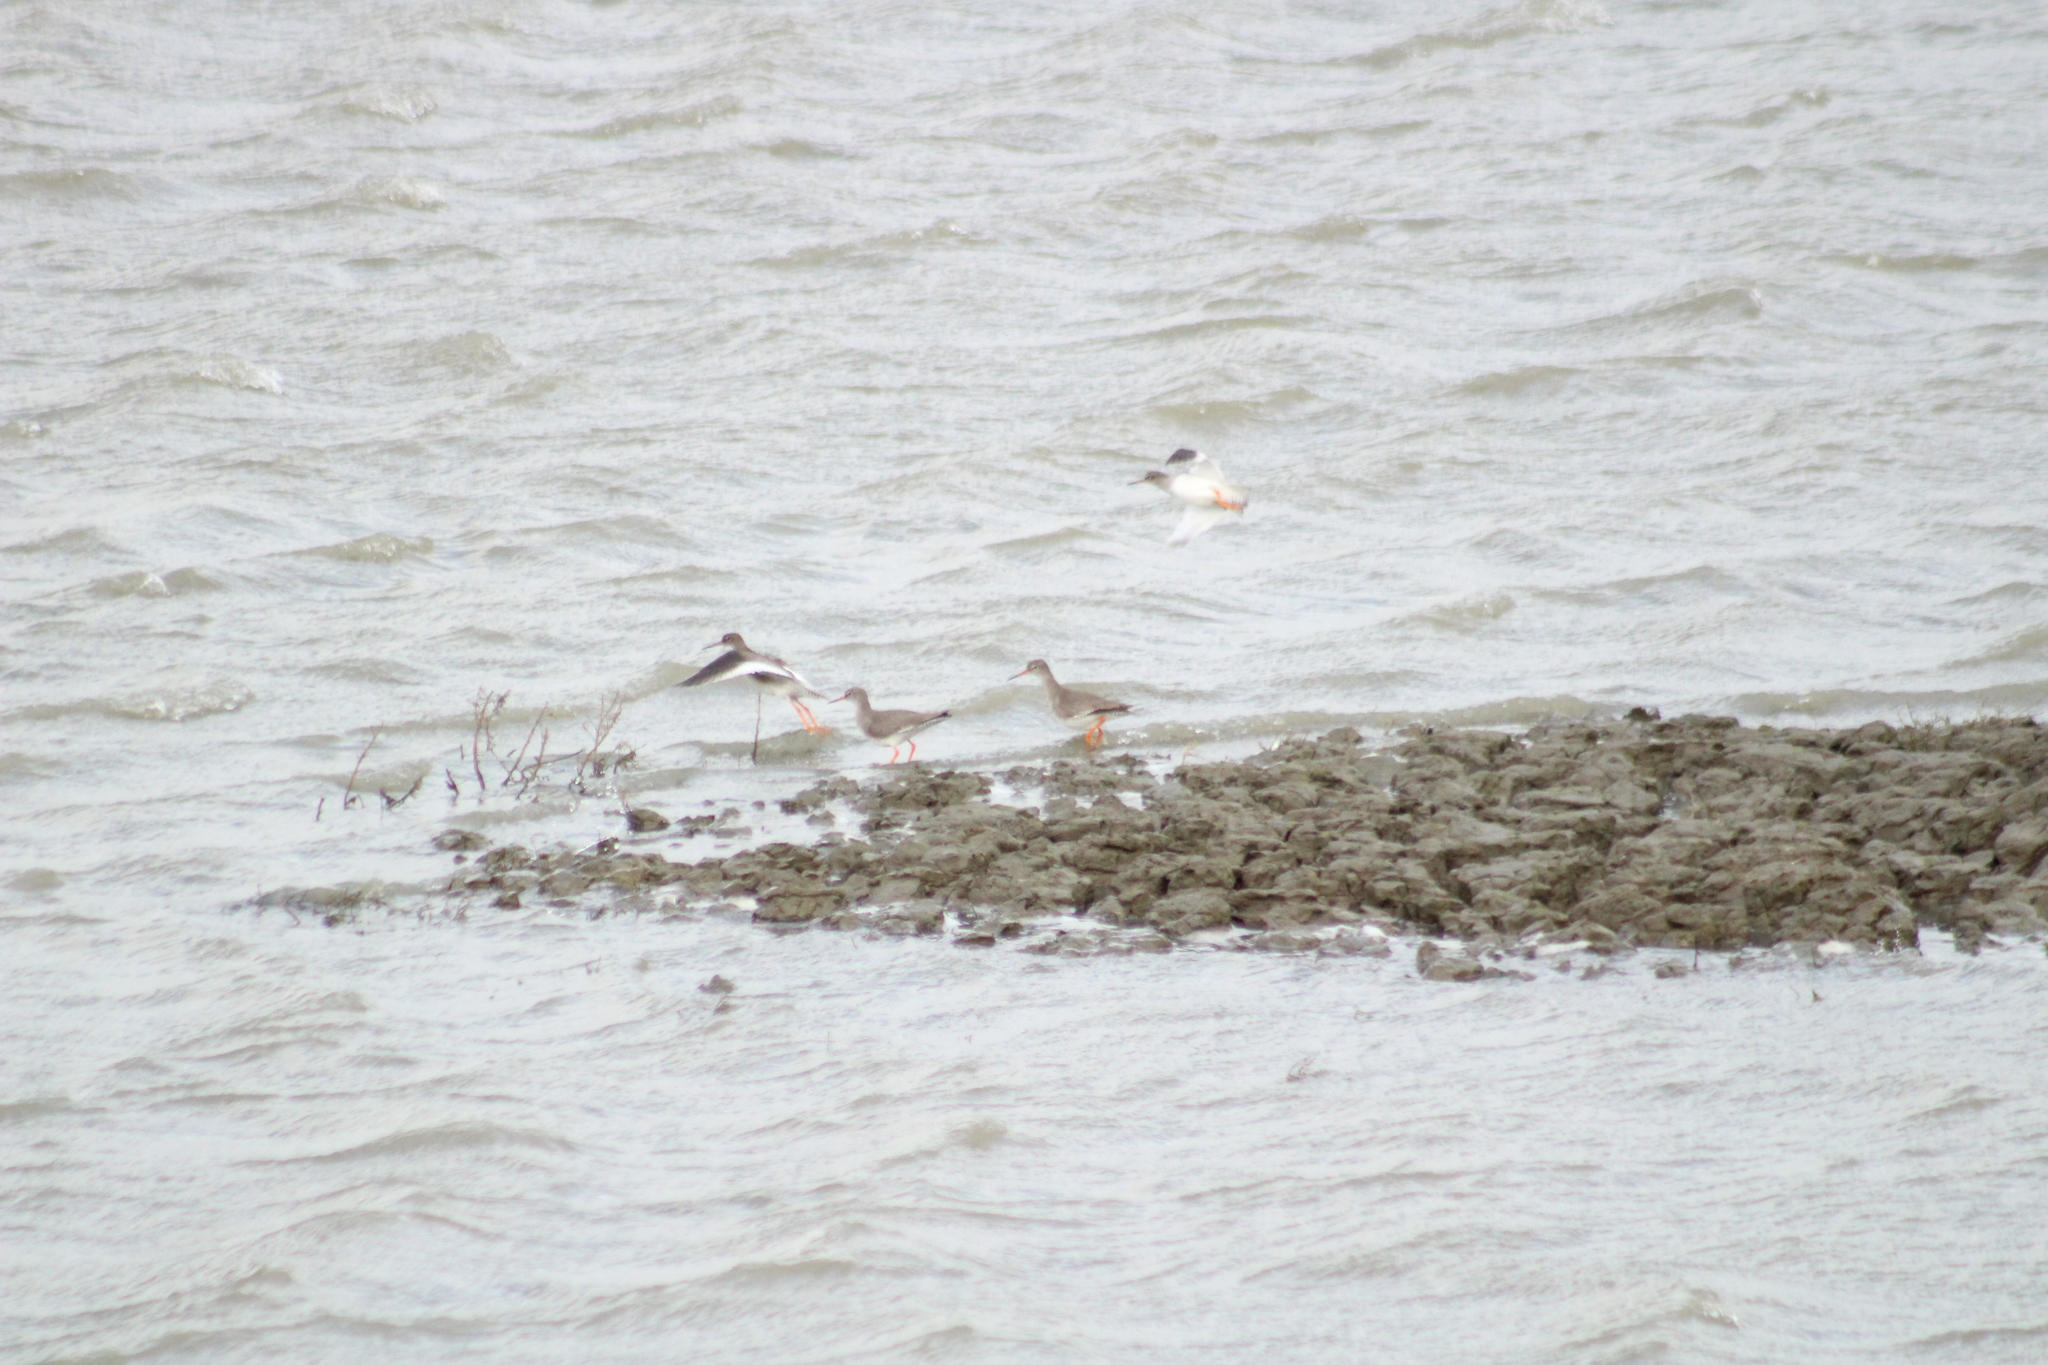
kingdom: Animalia
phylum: Chordata
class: Aves
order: Charadriiformes
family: Scolopacidae
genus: Tringa
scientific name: Tringa totanus
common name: Common redshank
